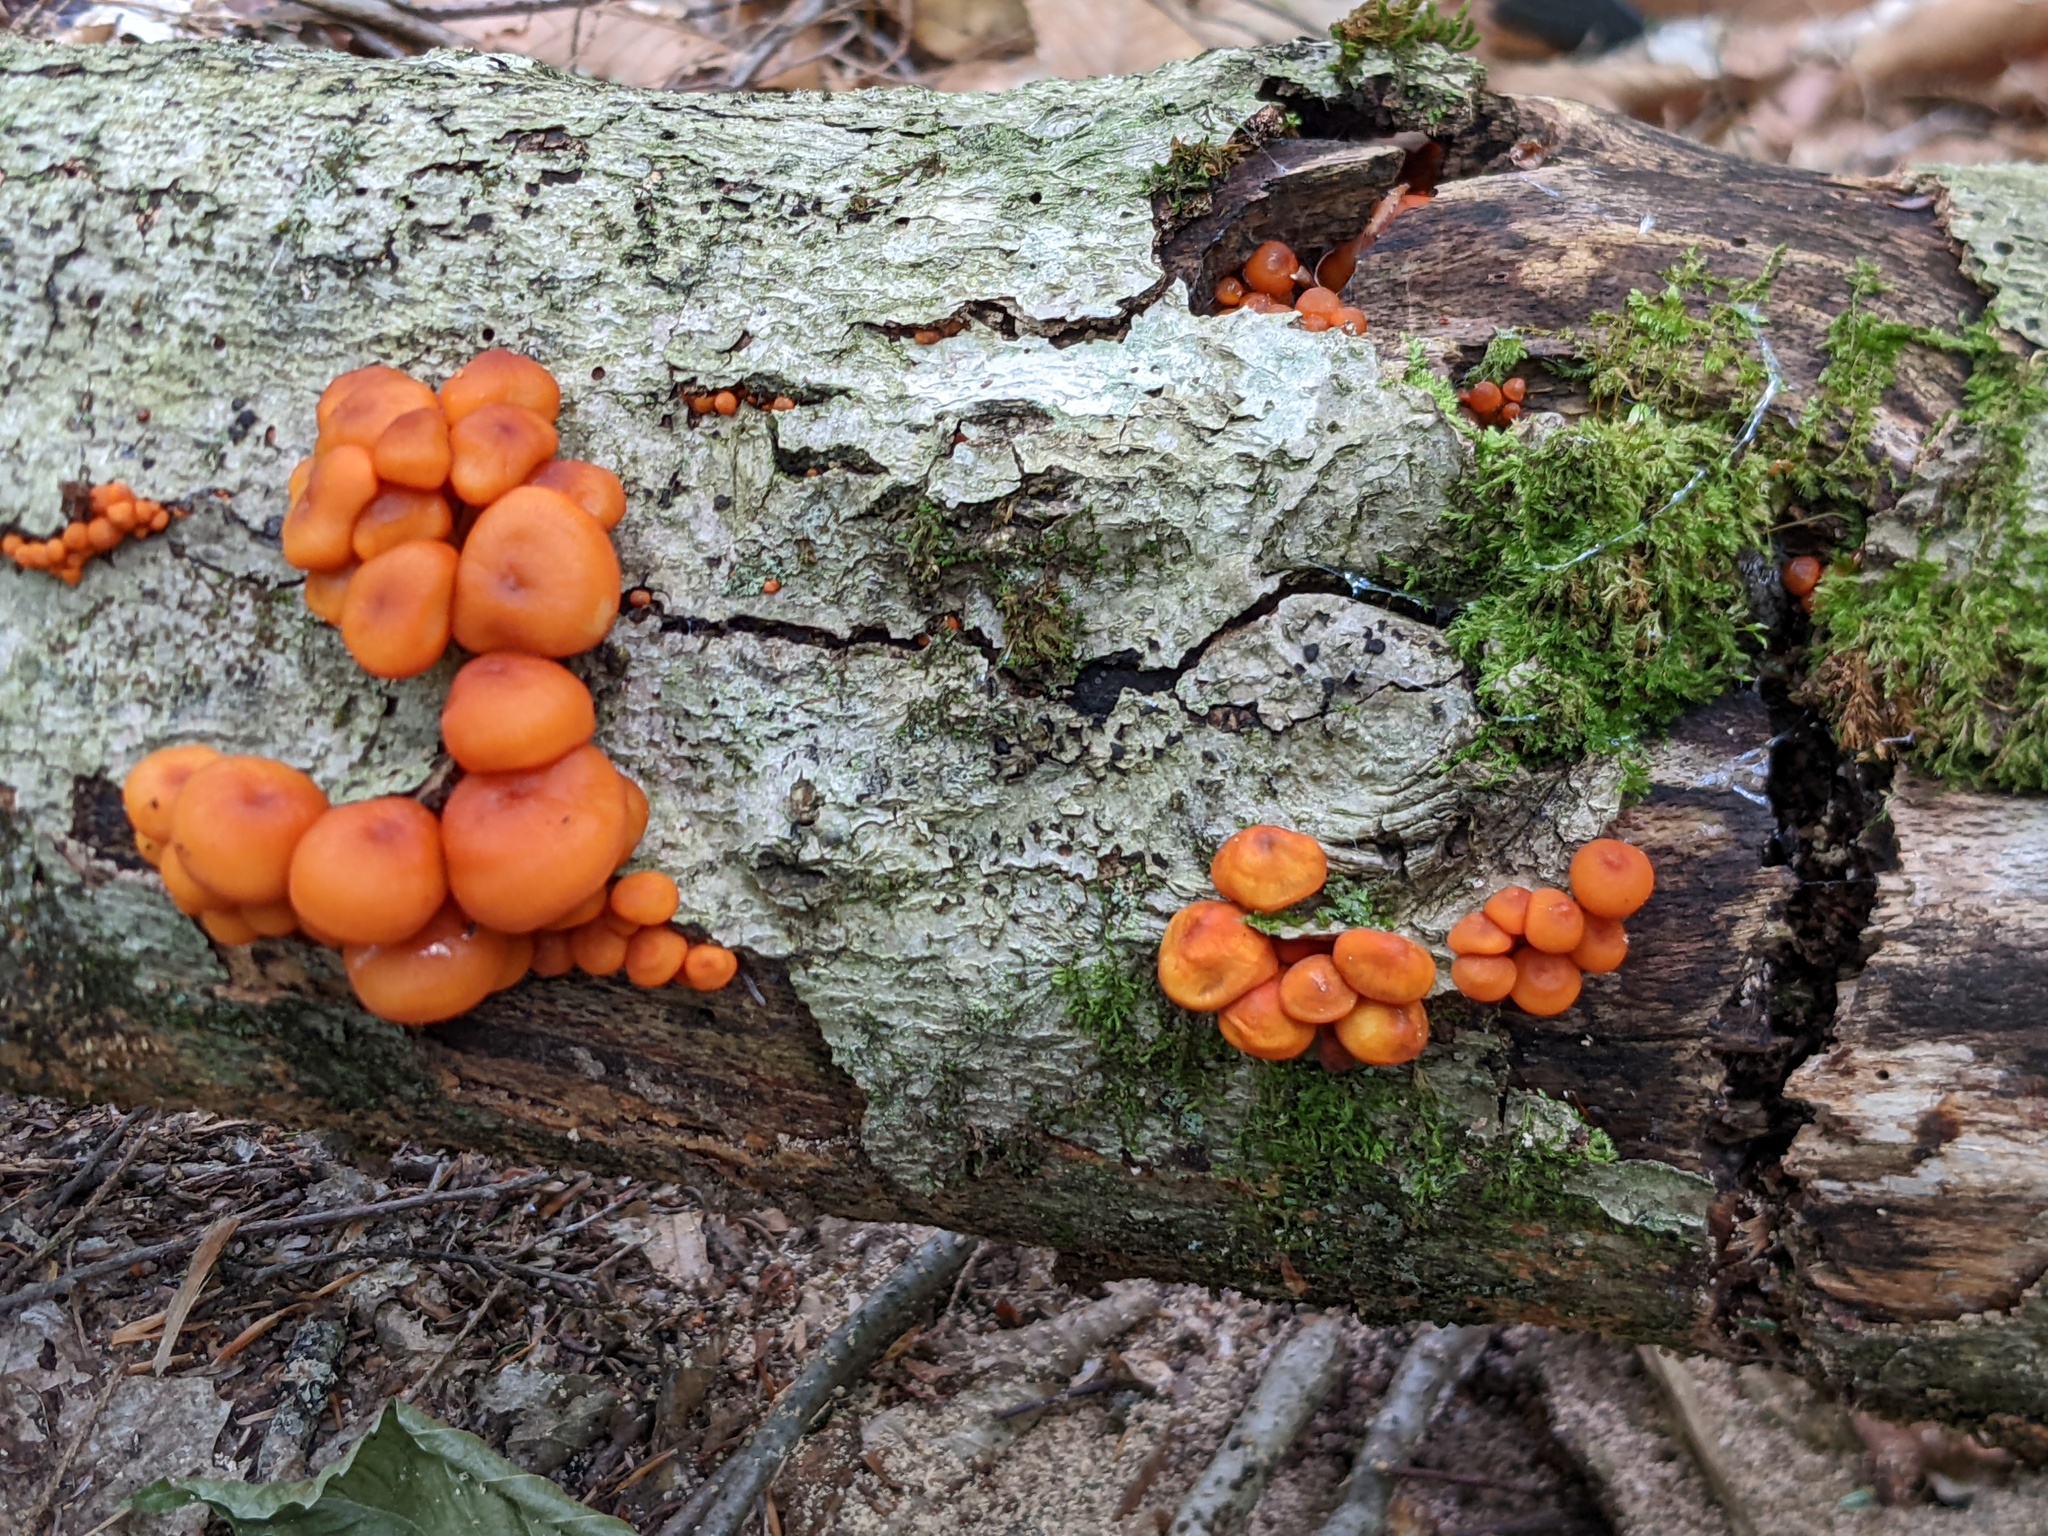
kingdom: Fungi
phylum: Basidiomycota
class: Agaricomycetes
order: Agaricales
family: Mycenaceae
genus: Mycena
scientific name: Mycena leaiana
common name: Orange mycena
